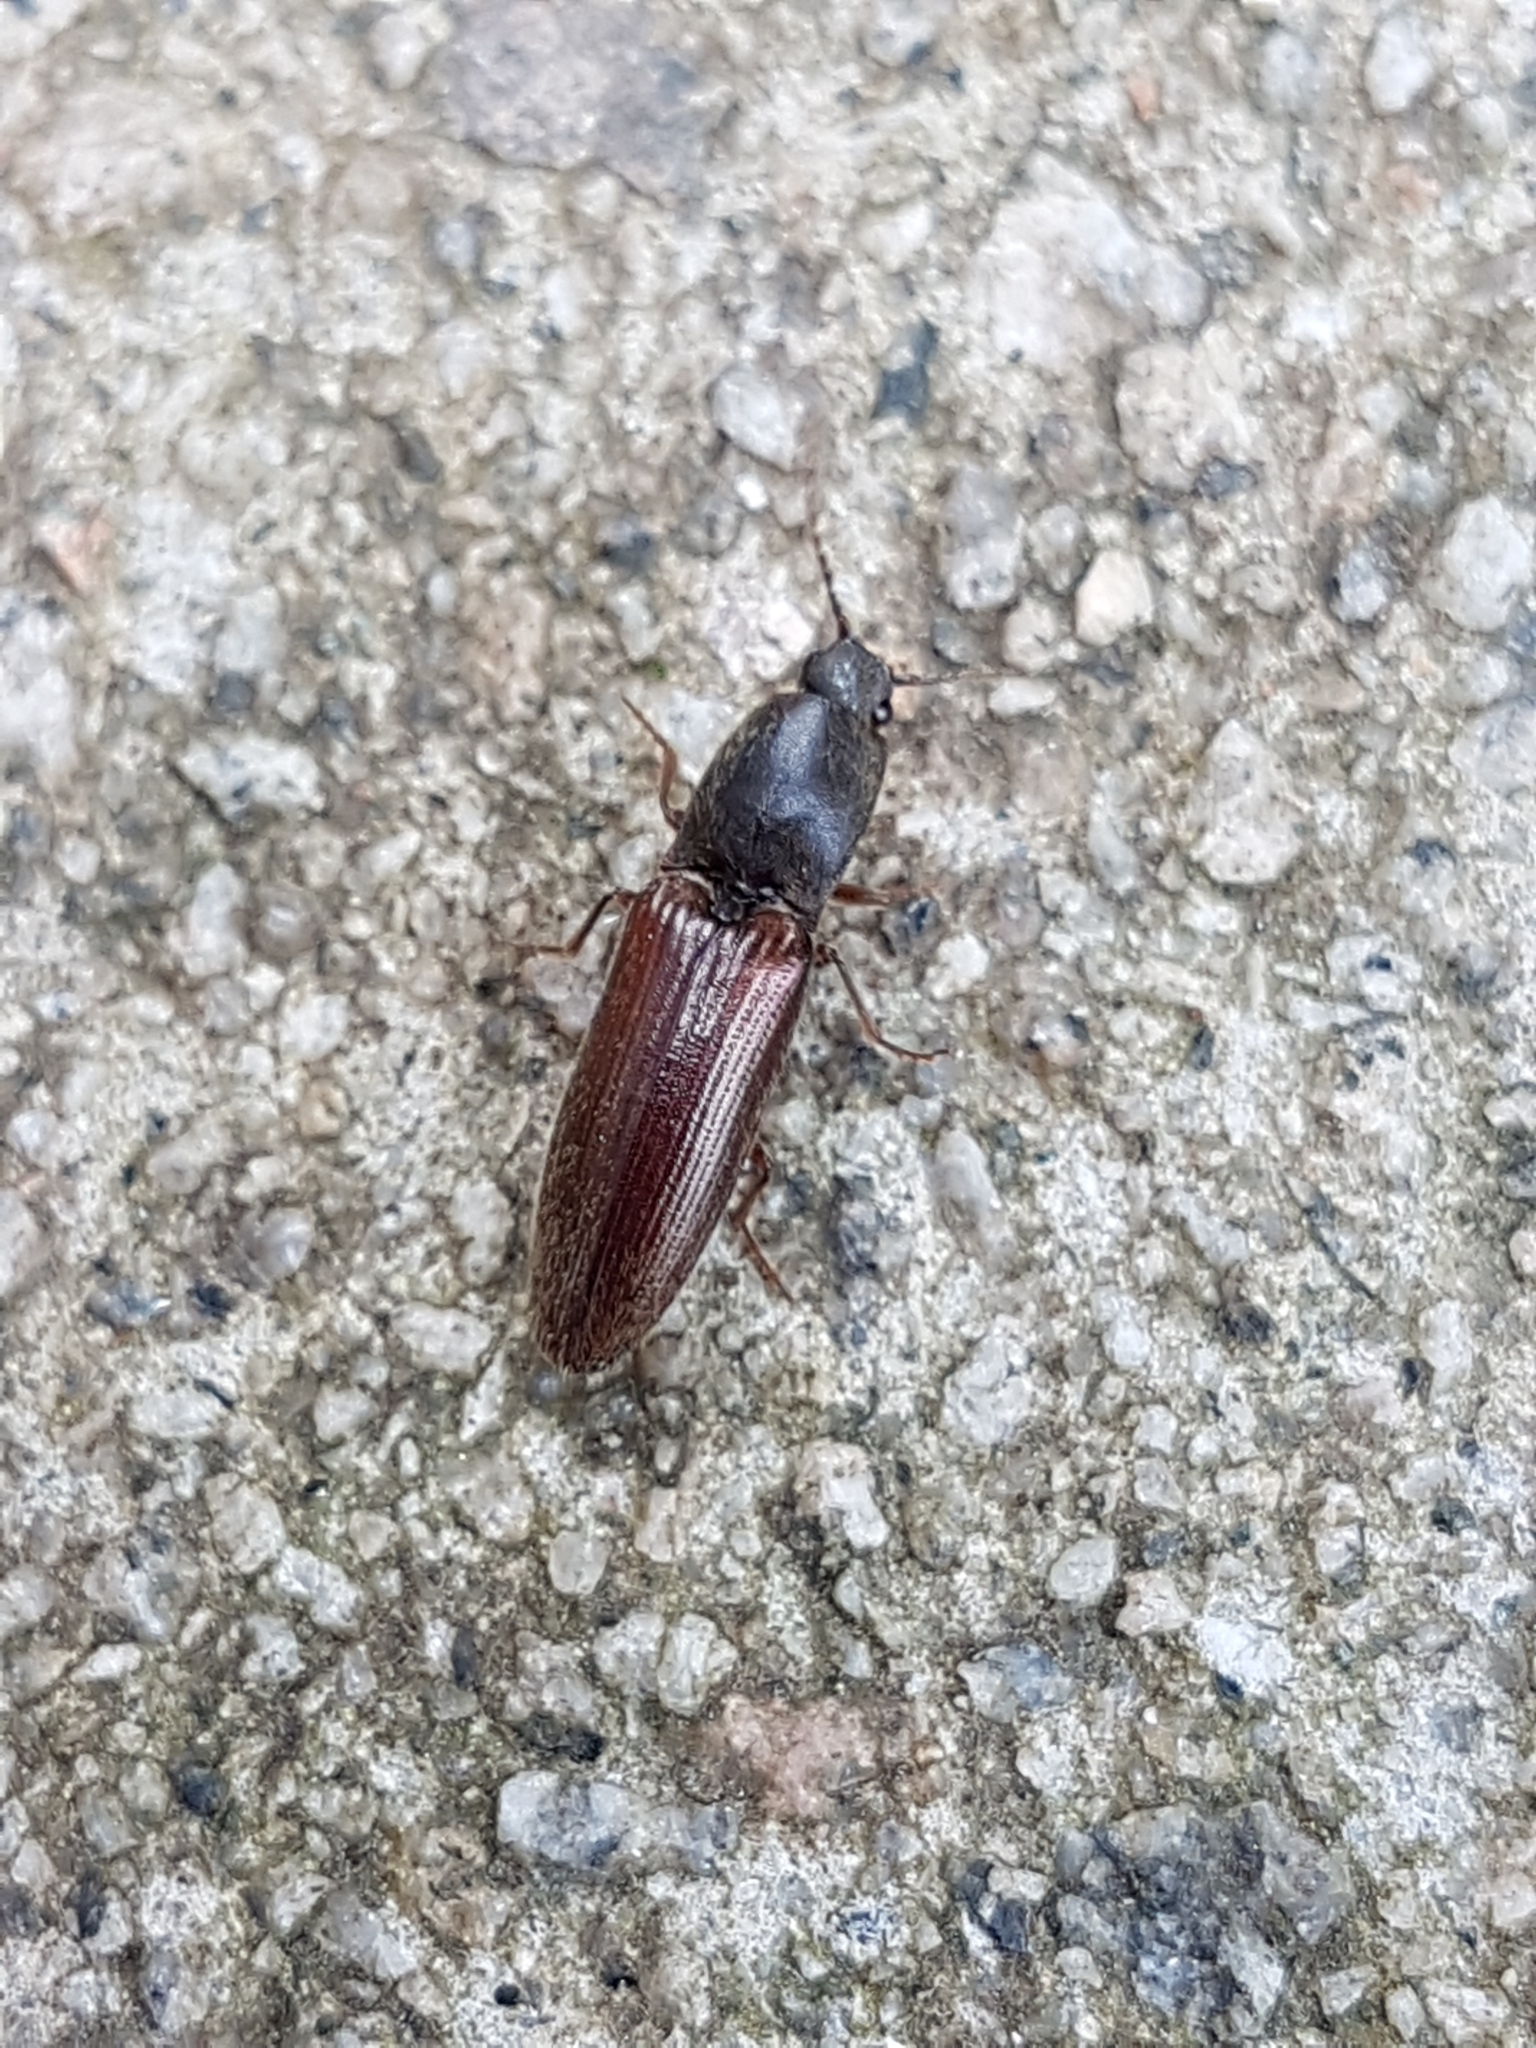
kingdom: Animalia
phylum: Arthropoda
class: Insecta
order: Coleoptera
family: Elateridae
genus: Athous
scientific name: Athous haemorrhoidalis
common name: Red-brown click beetle
